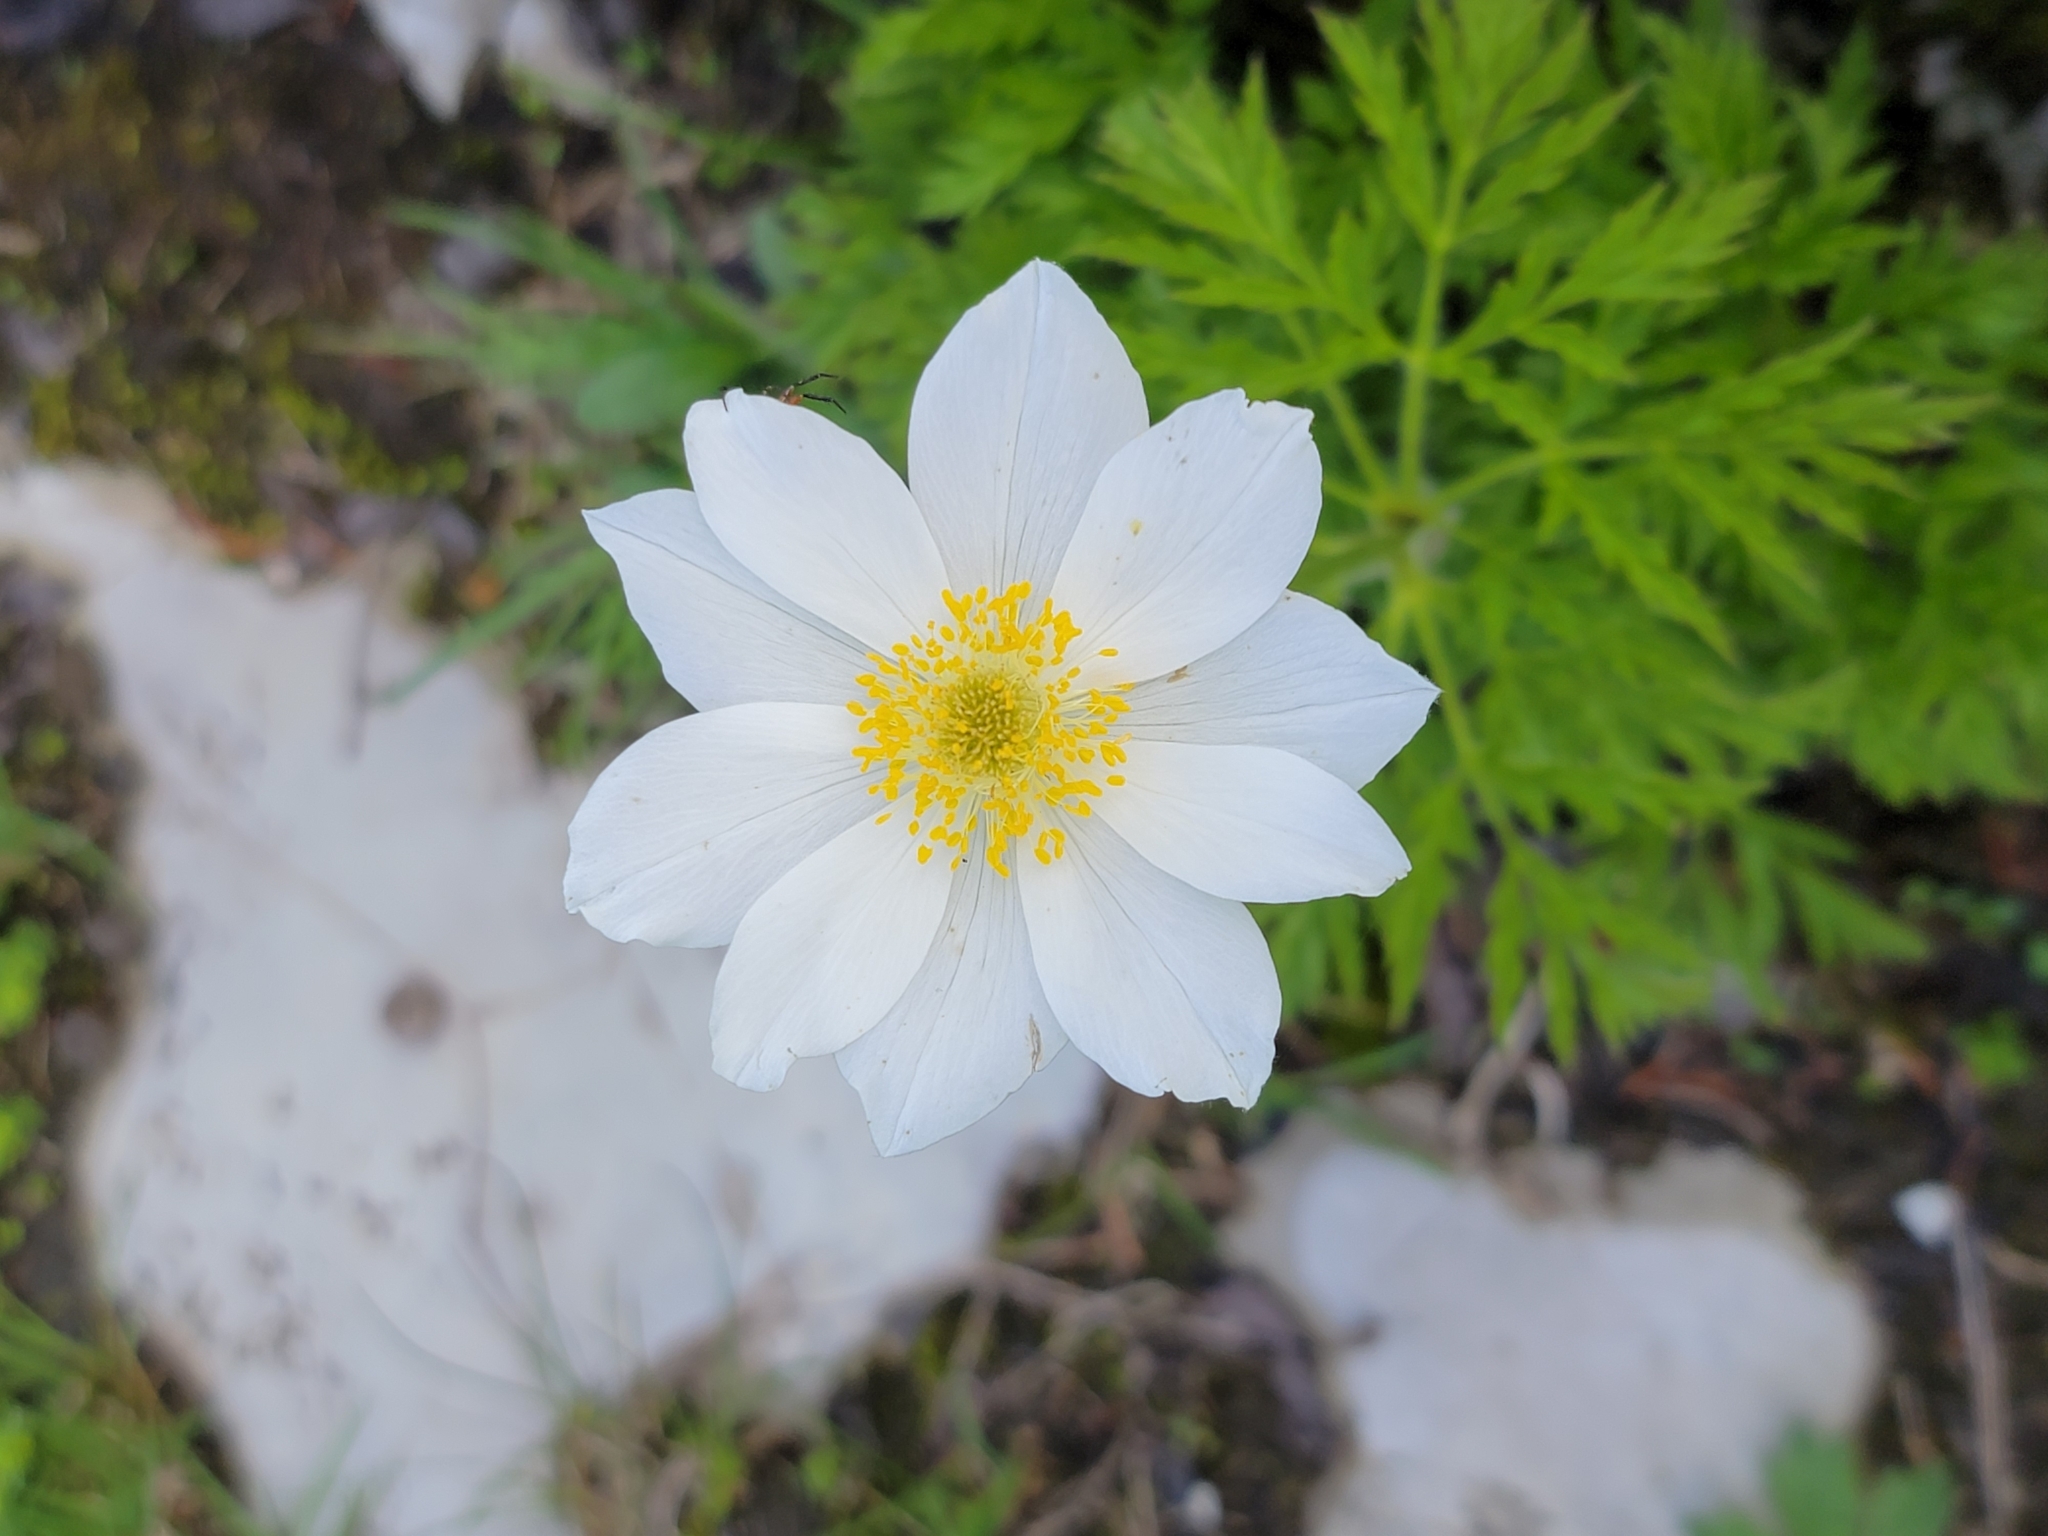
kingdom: Plantae
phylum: Tracheophyta
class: Magnoliopsida
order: Ranunculales
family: Ranunculaceae
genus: Pulsatilla
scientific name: Pulsatilla alpina
